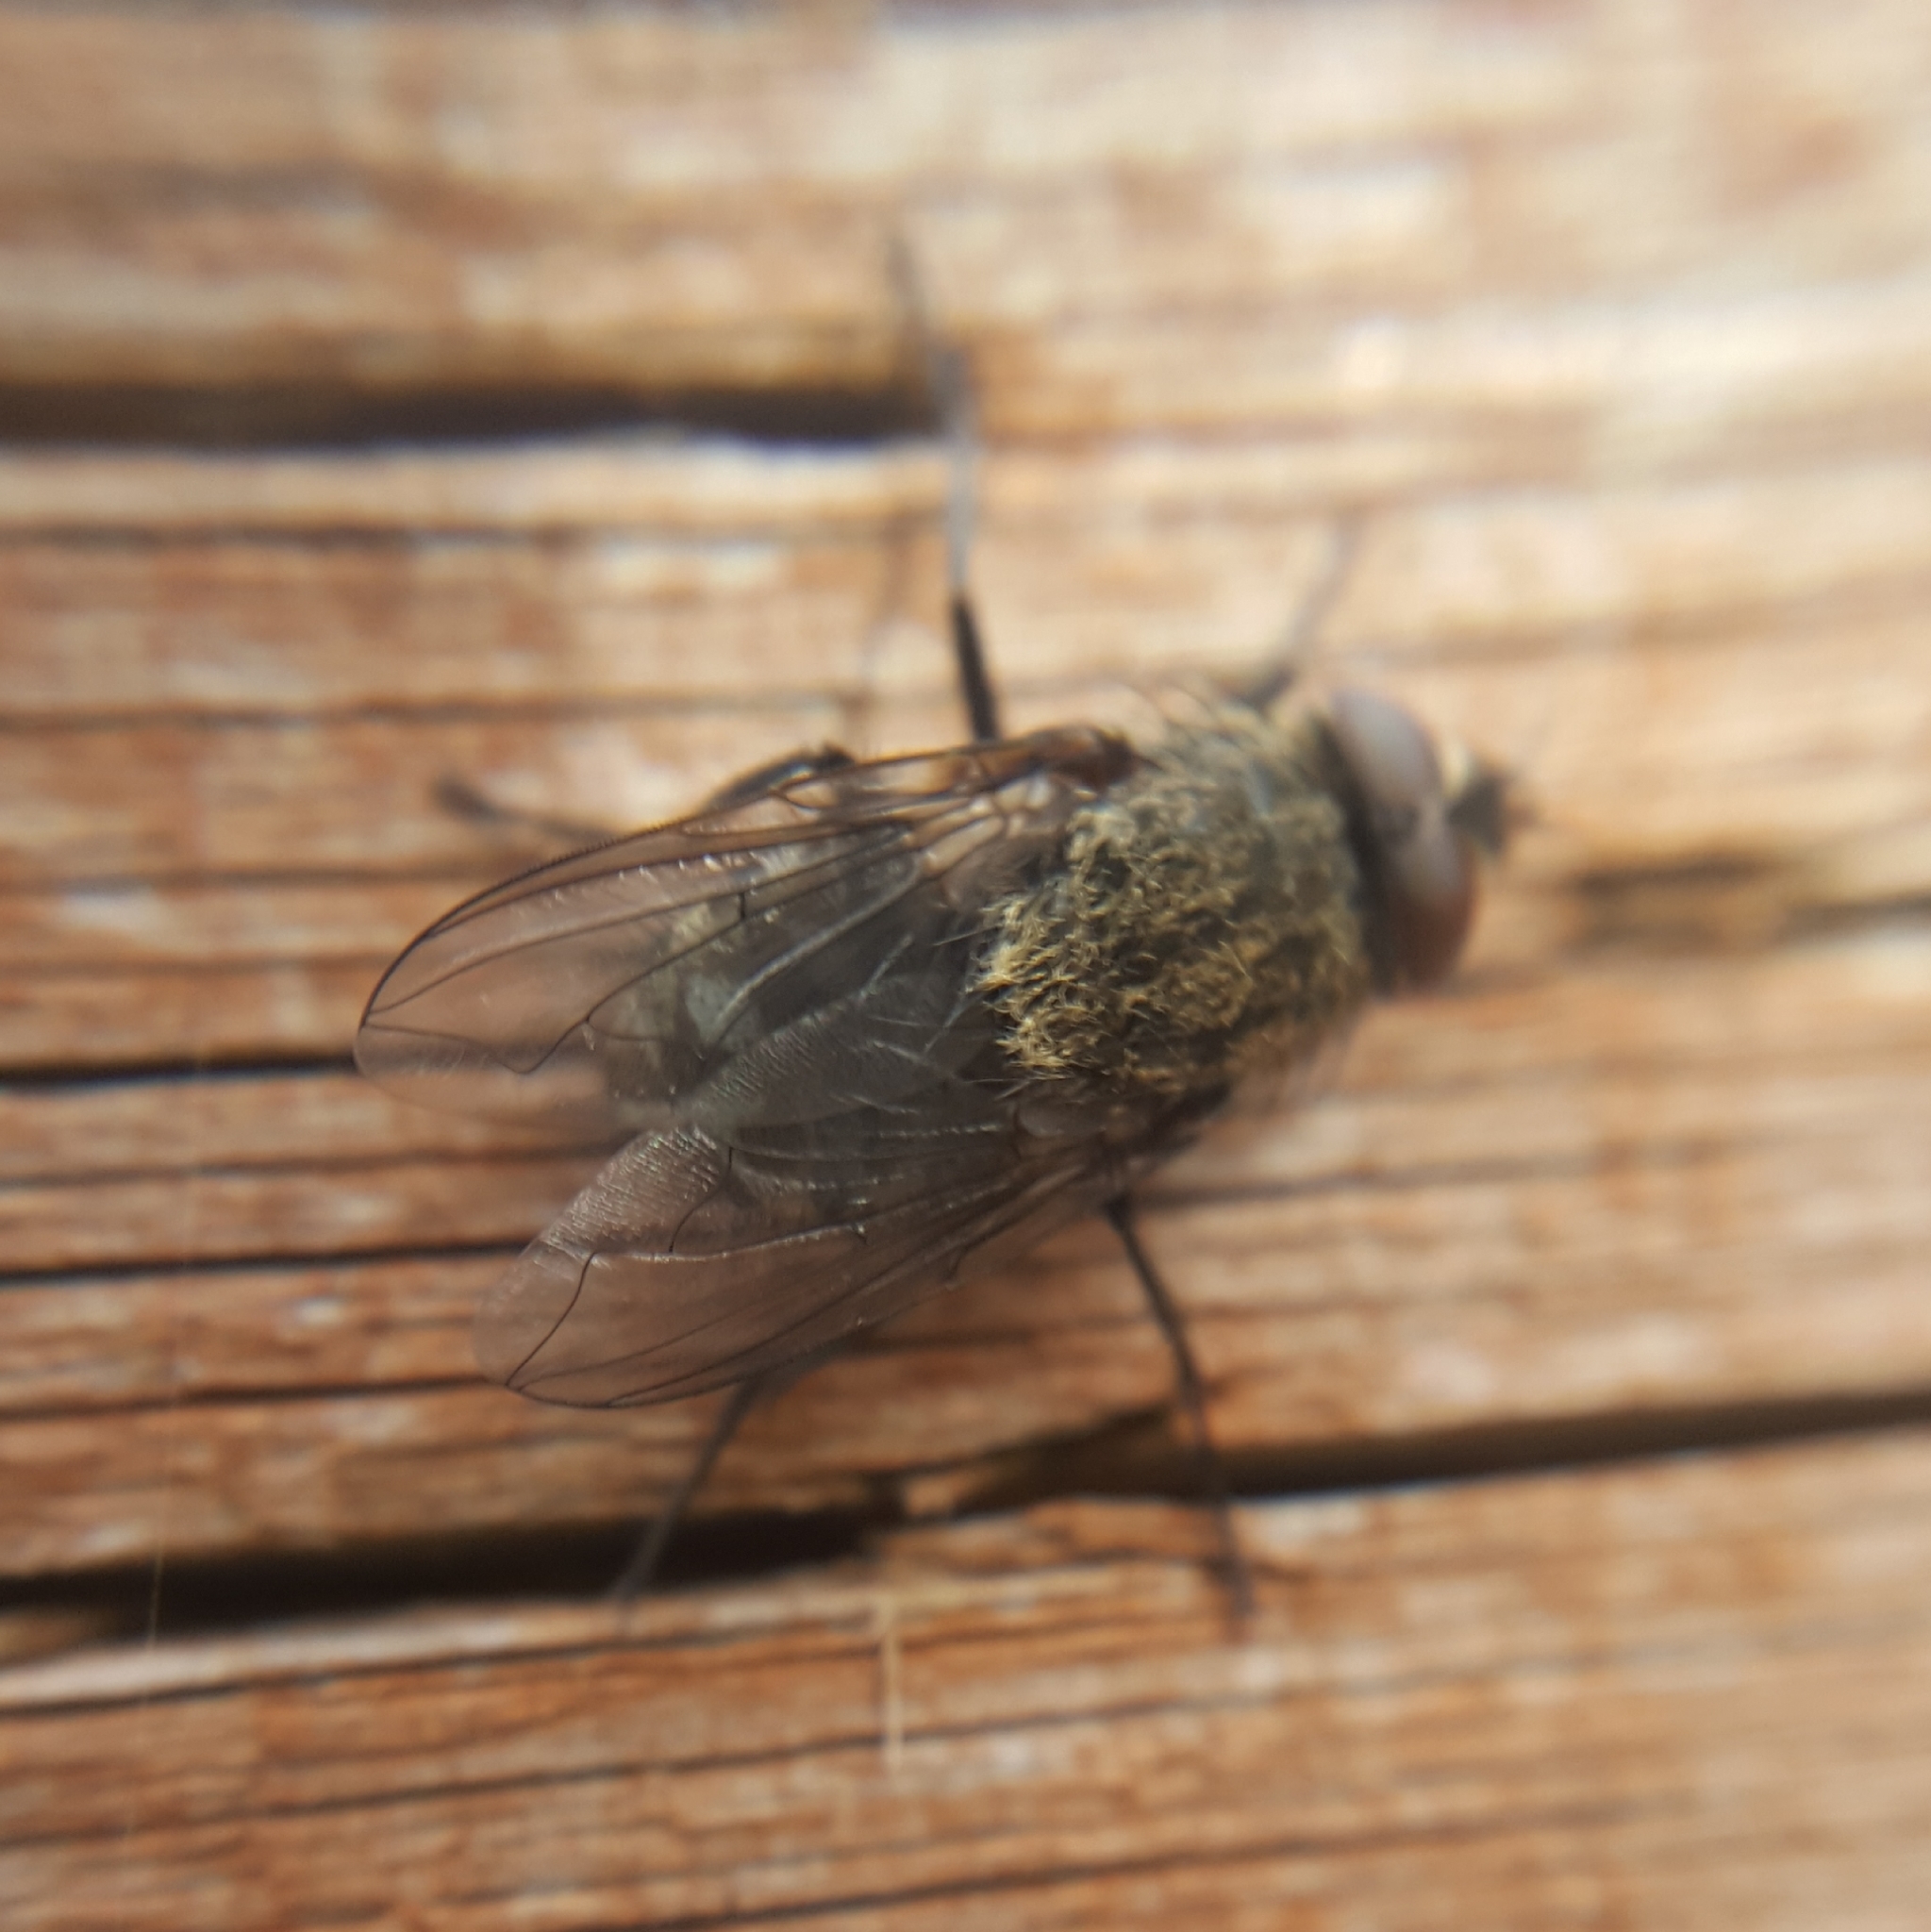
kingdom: Animalia
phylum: Arthropoda
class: Insecta
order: Diptera
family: Polleniidae
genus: Pollenia
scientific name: Pollenia
